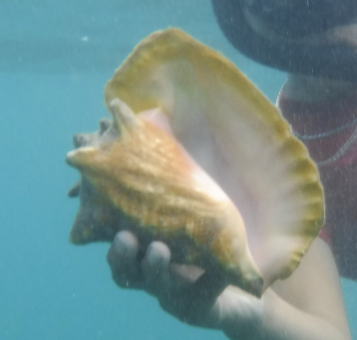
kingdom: Animalia
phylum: Mollusca
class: Gastropoda
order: Littorinimorpha
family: Strombidae
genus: Aliger
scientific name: Aliger gigas
